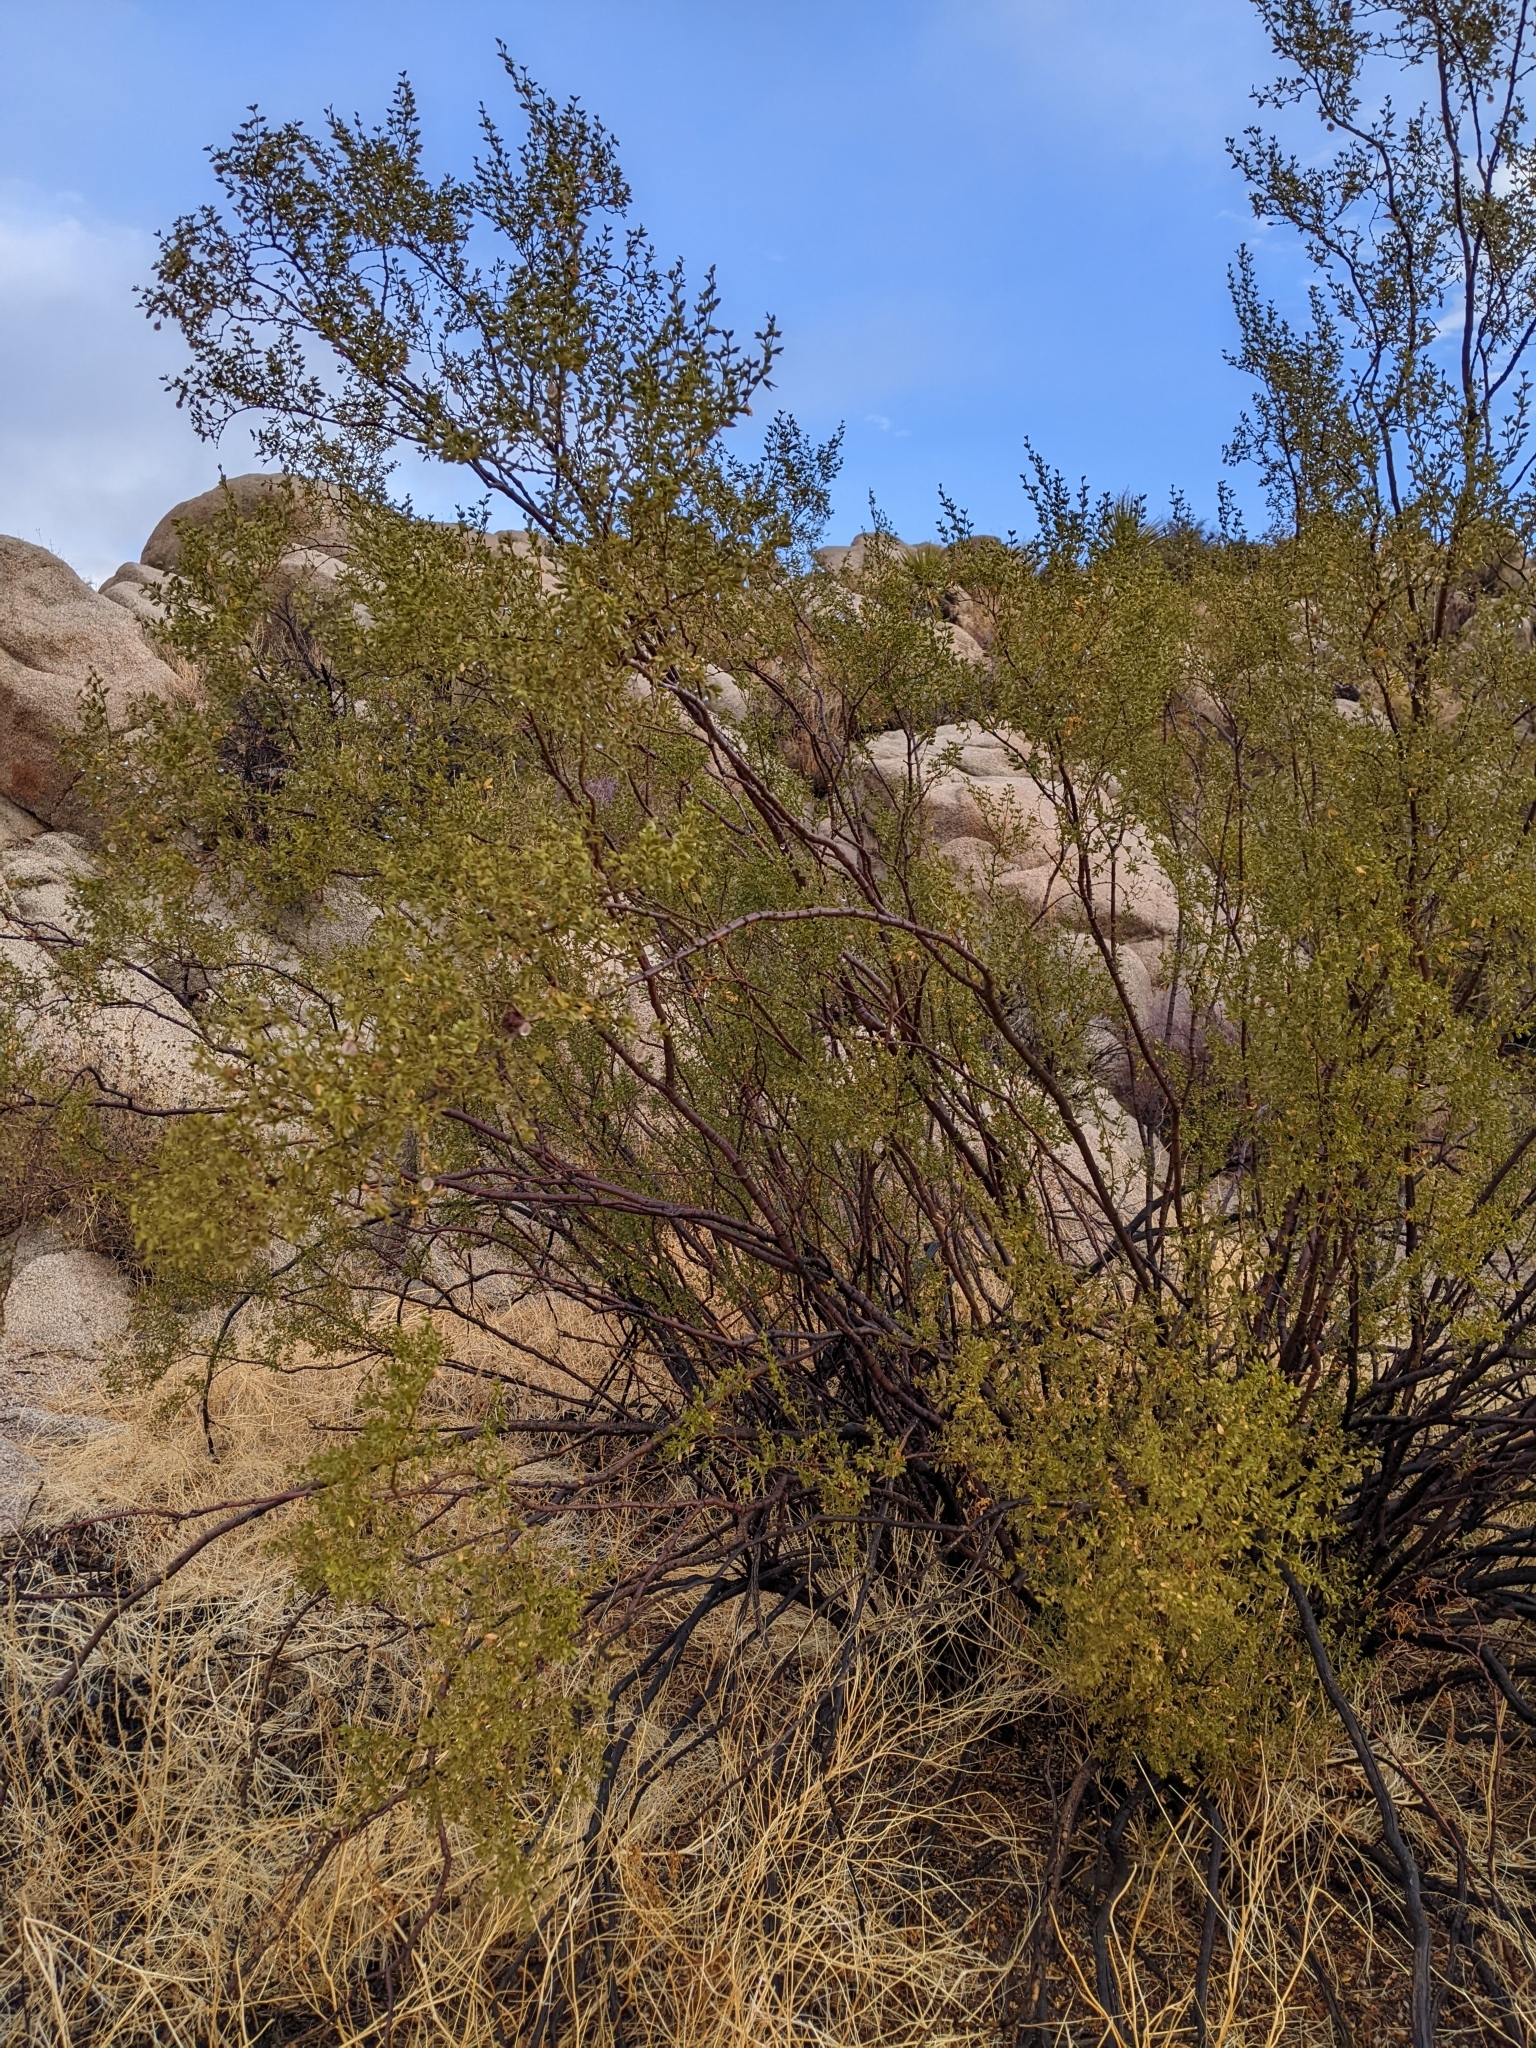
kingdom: Plantae
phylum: Tracheophyta
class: Magnoliopsida
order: Zygophyllales
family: Zygophyllaceae
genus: Larrea
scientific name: Larrea tridentata
